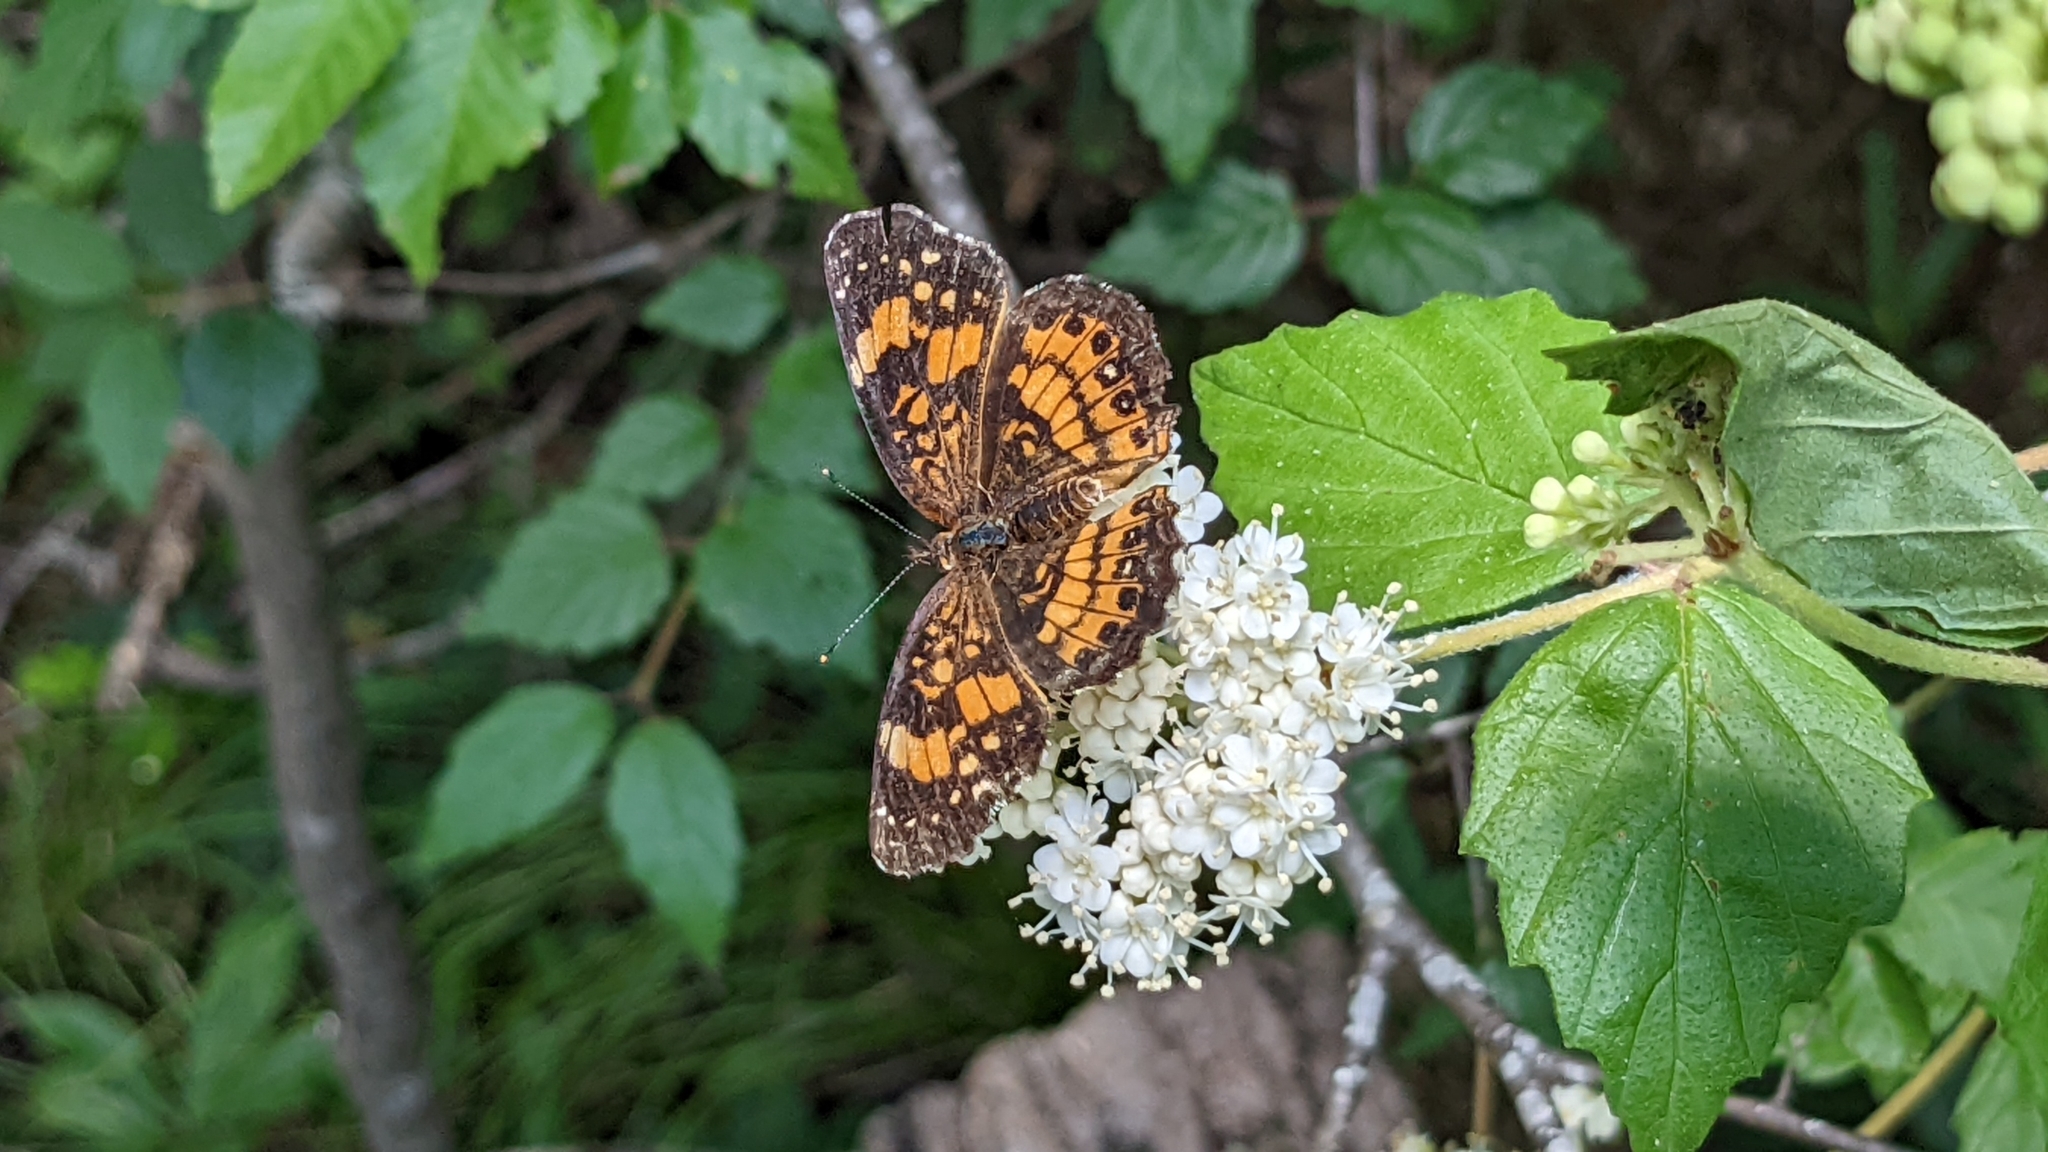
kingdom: Animalia
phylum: Arthropoda
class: Insecta
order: Lepidoptera
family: Nymphalidae
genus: Chlosyne
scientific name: Chlosyne nycteis
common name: Silvery checkerspot
